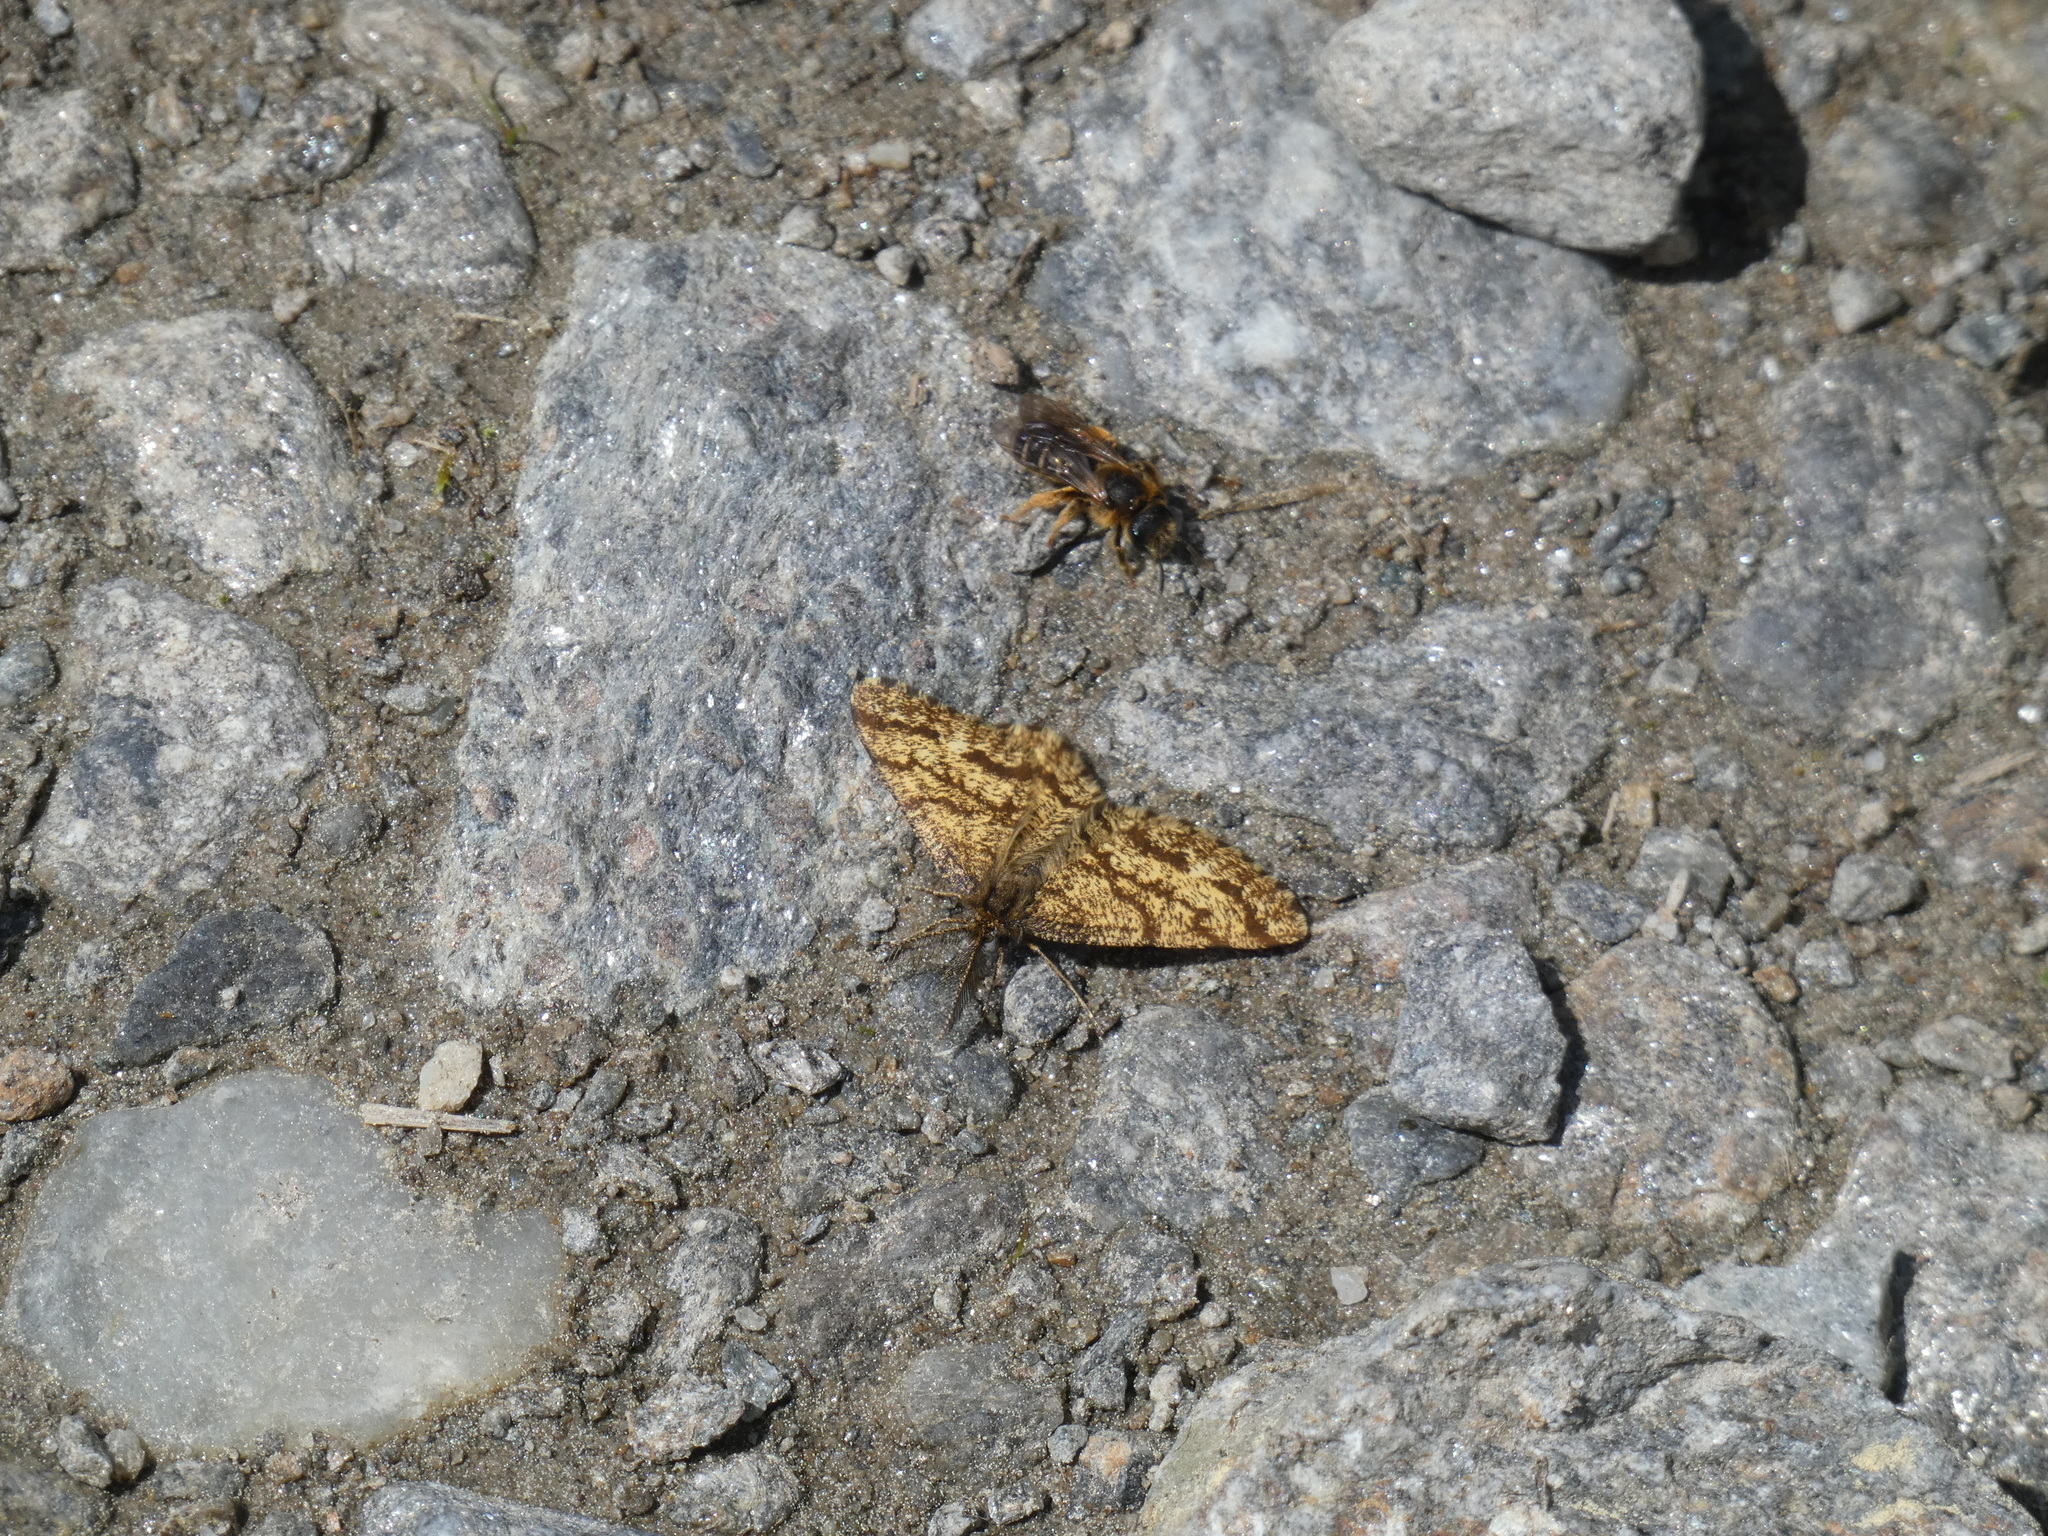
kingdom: Animalia
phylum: Arthropoda
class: Insecta
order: Lepidoptera
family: Geometridae
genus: Ematurga
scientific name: Ematurga atomaria
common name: Common heath
